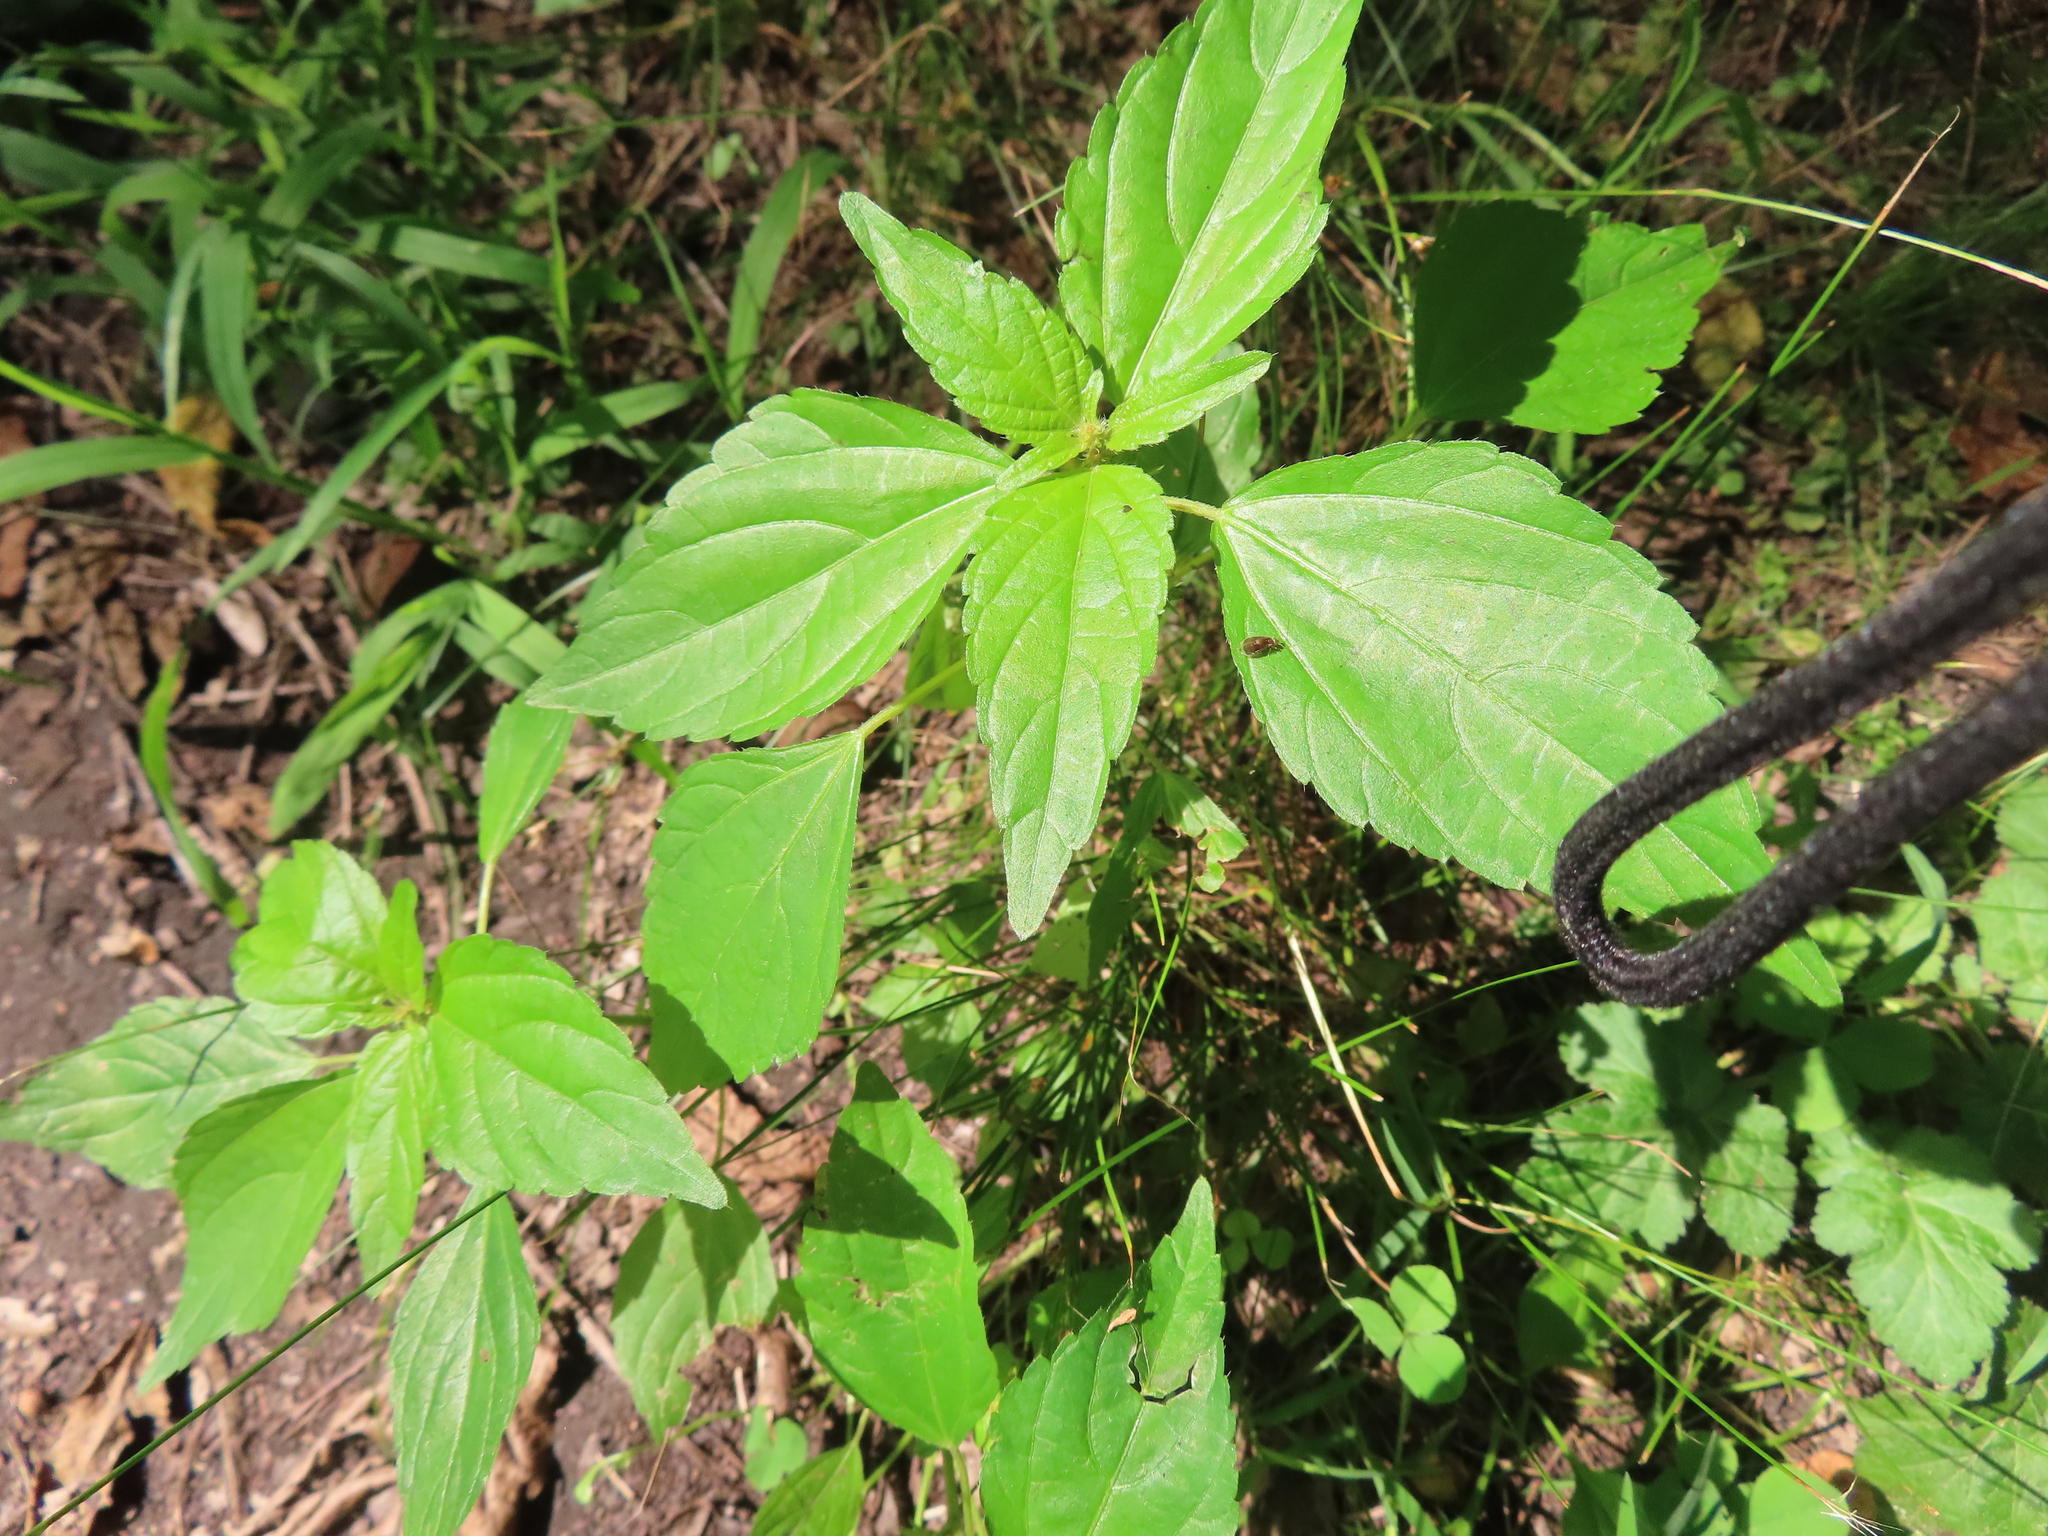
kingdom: Plantae
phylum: Tracheophyta
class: Magnoliopsida
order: Malpighiales
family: Euphorbiaceae
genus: Acalypha
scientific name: Acalypha rhomboidea
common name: Rhombic copperleaf
